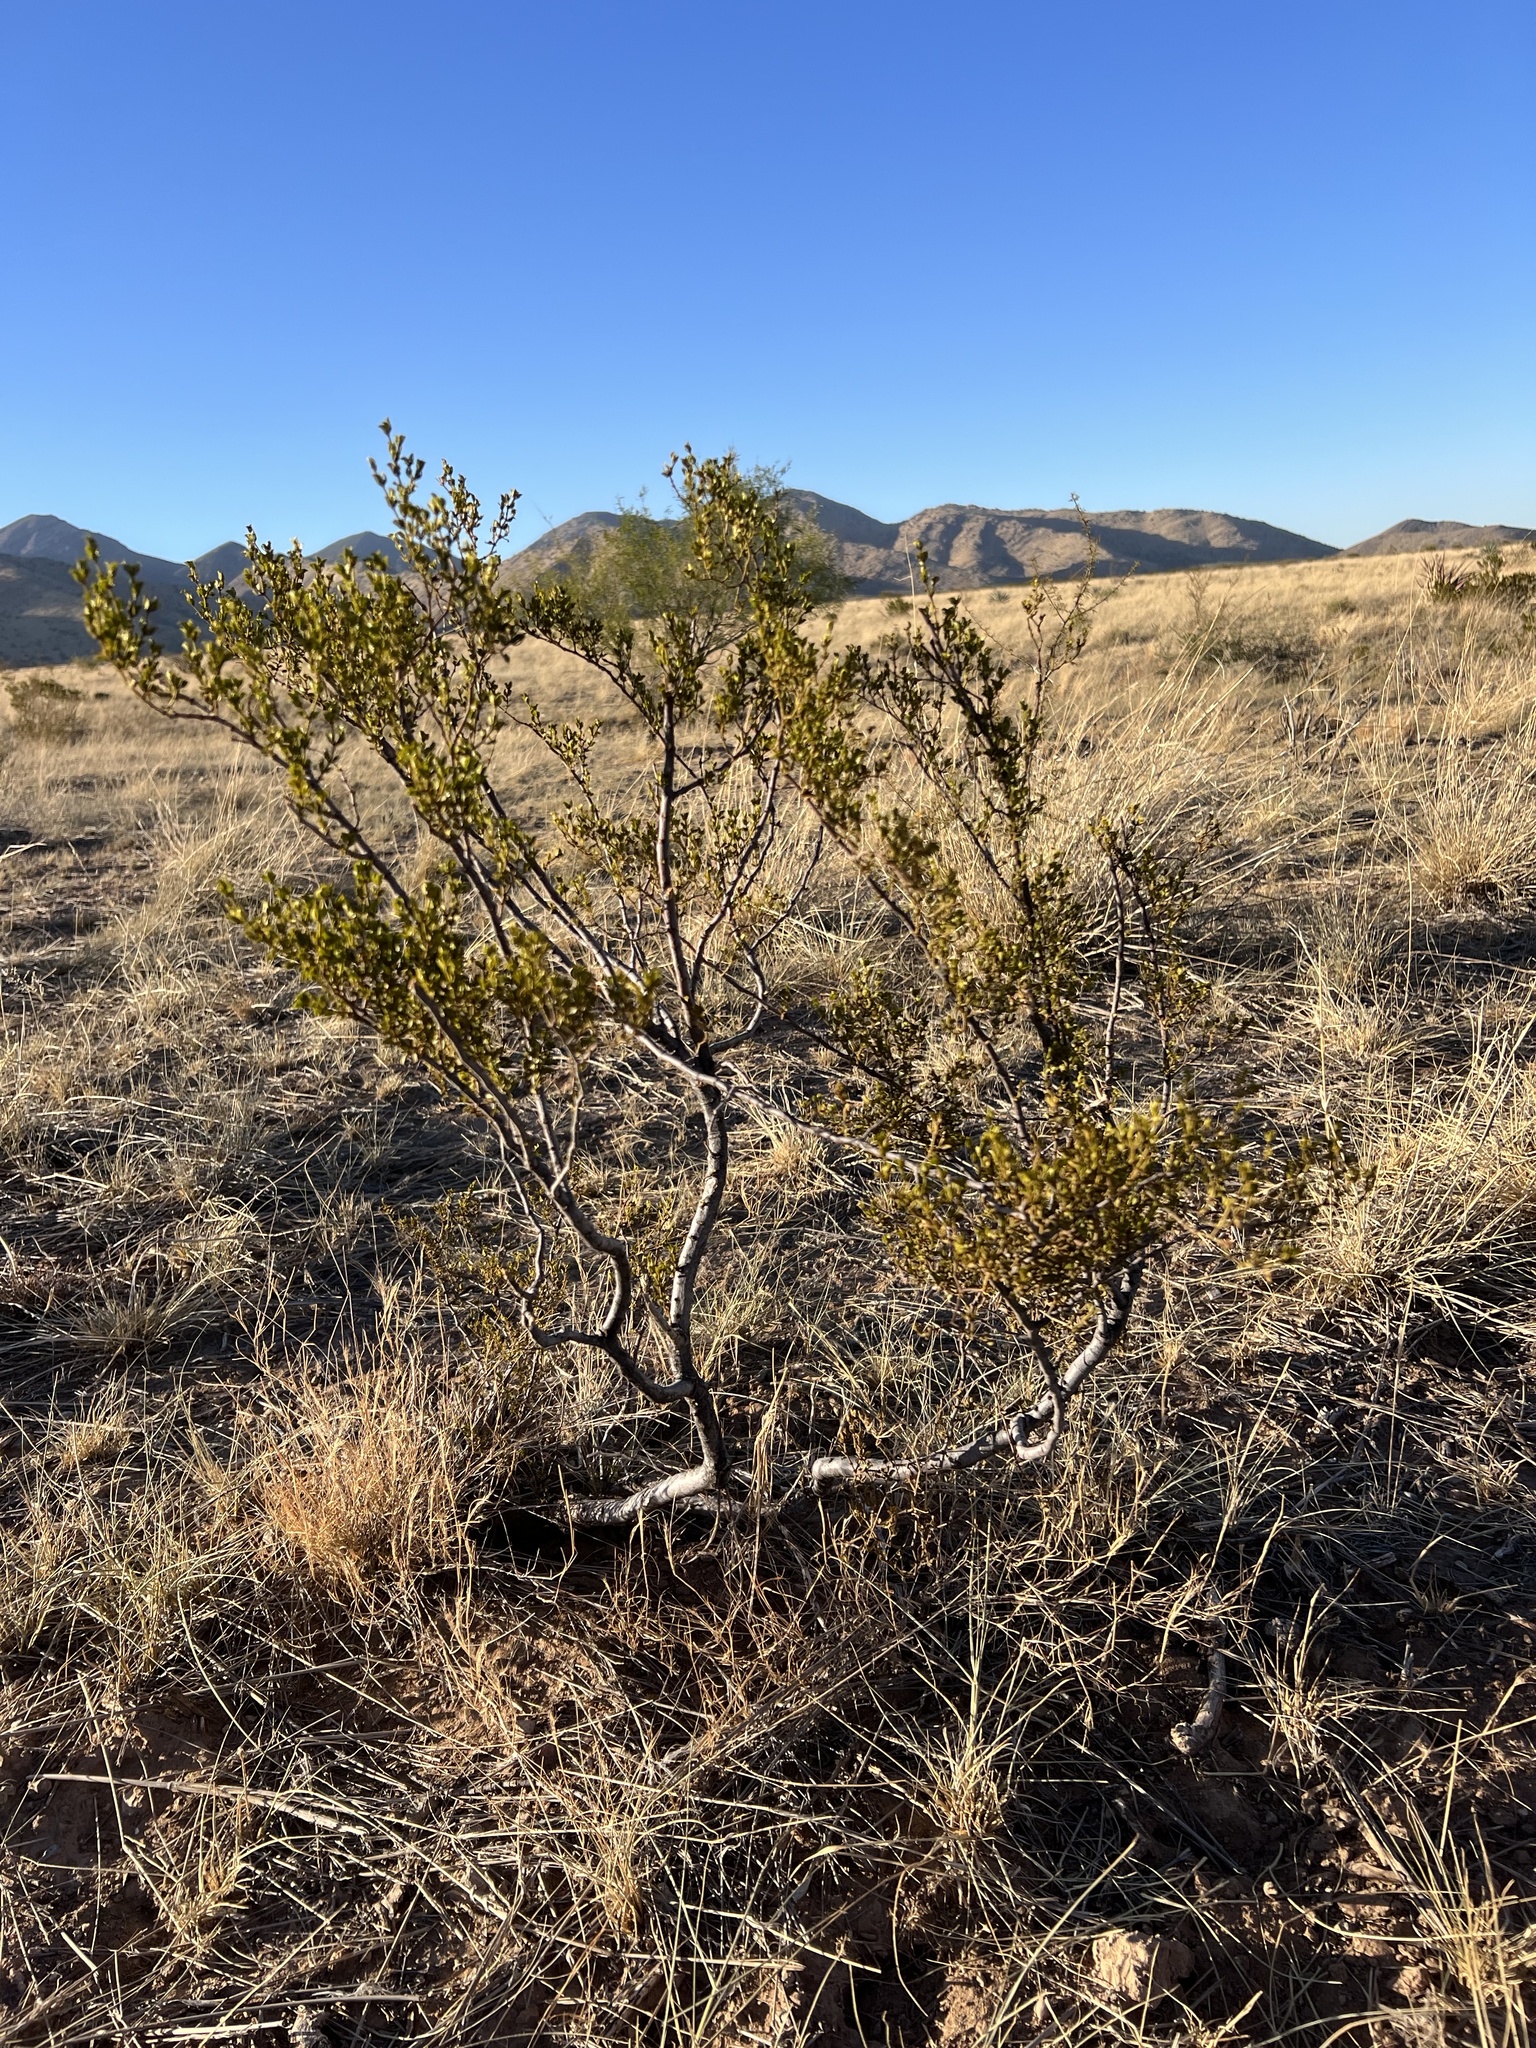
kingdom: Plantae
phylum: Tracheophyta
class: Magnoliopsida
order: Zygophyllales
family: Zygophyllaceae
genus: Larrea
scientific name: Larrea tridentata
